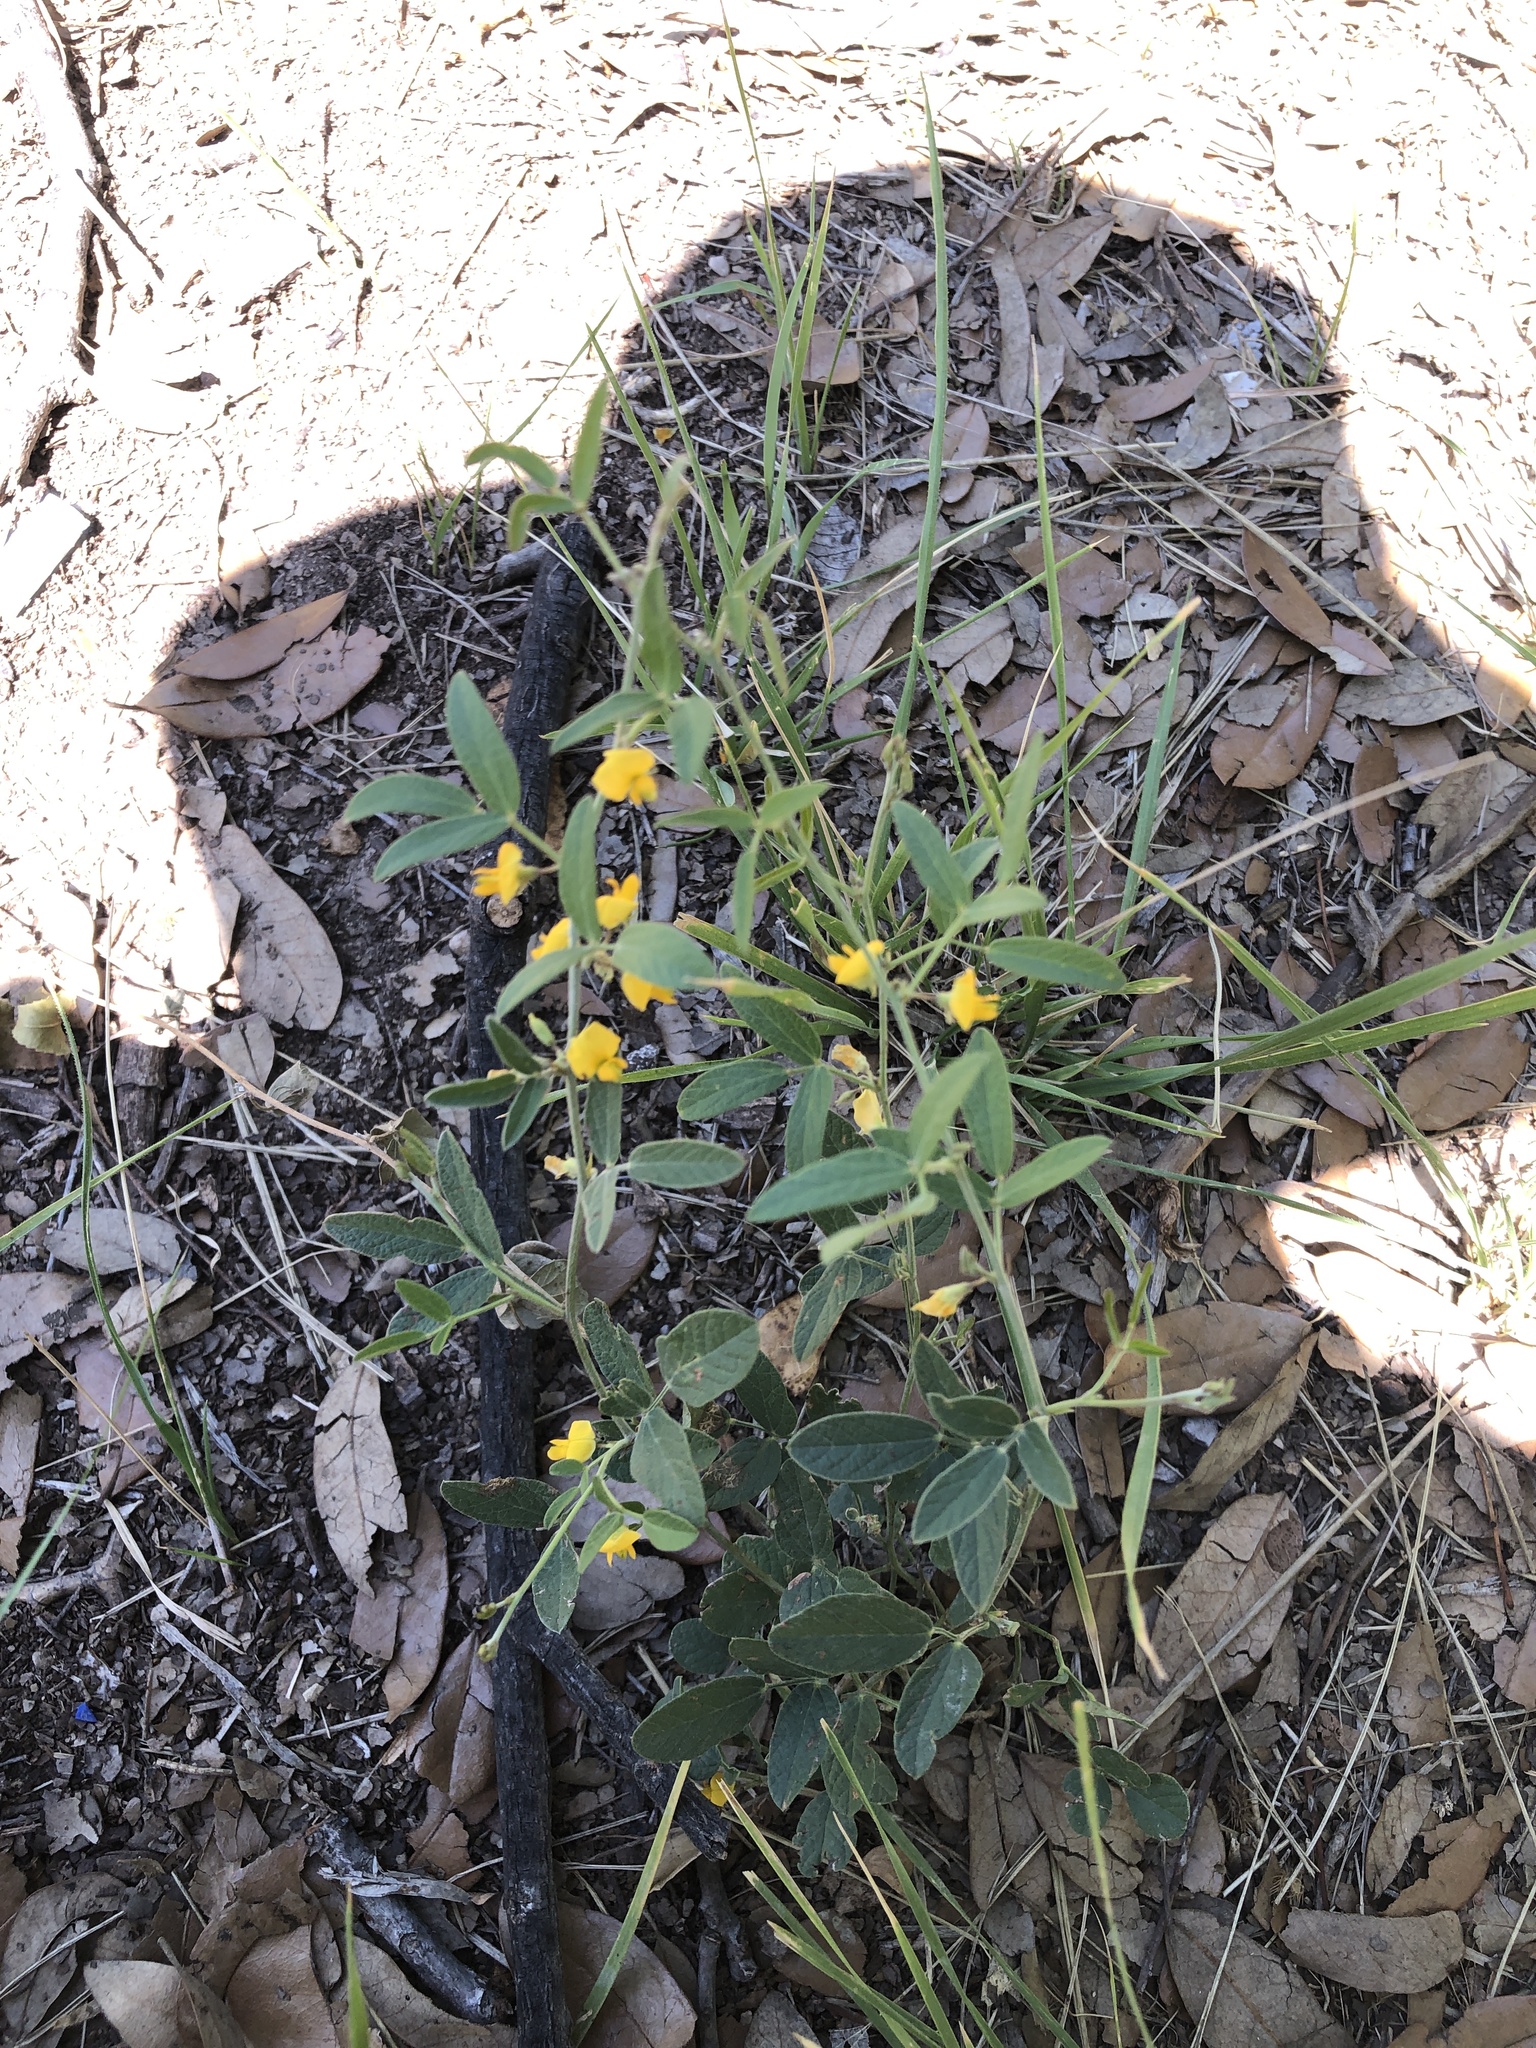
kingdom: Plantae
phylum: Tracheophyta
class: Magnoliopsida
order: Fabales
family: Fabaceae
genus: Rhynchosia
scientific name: Rhynchosia senna
